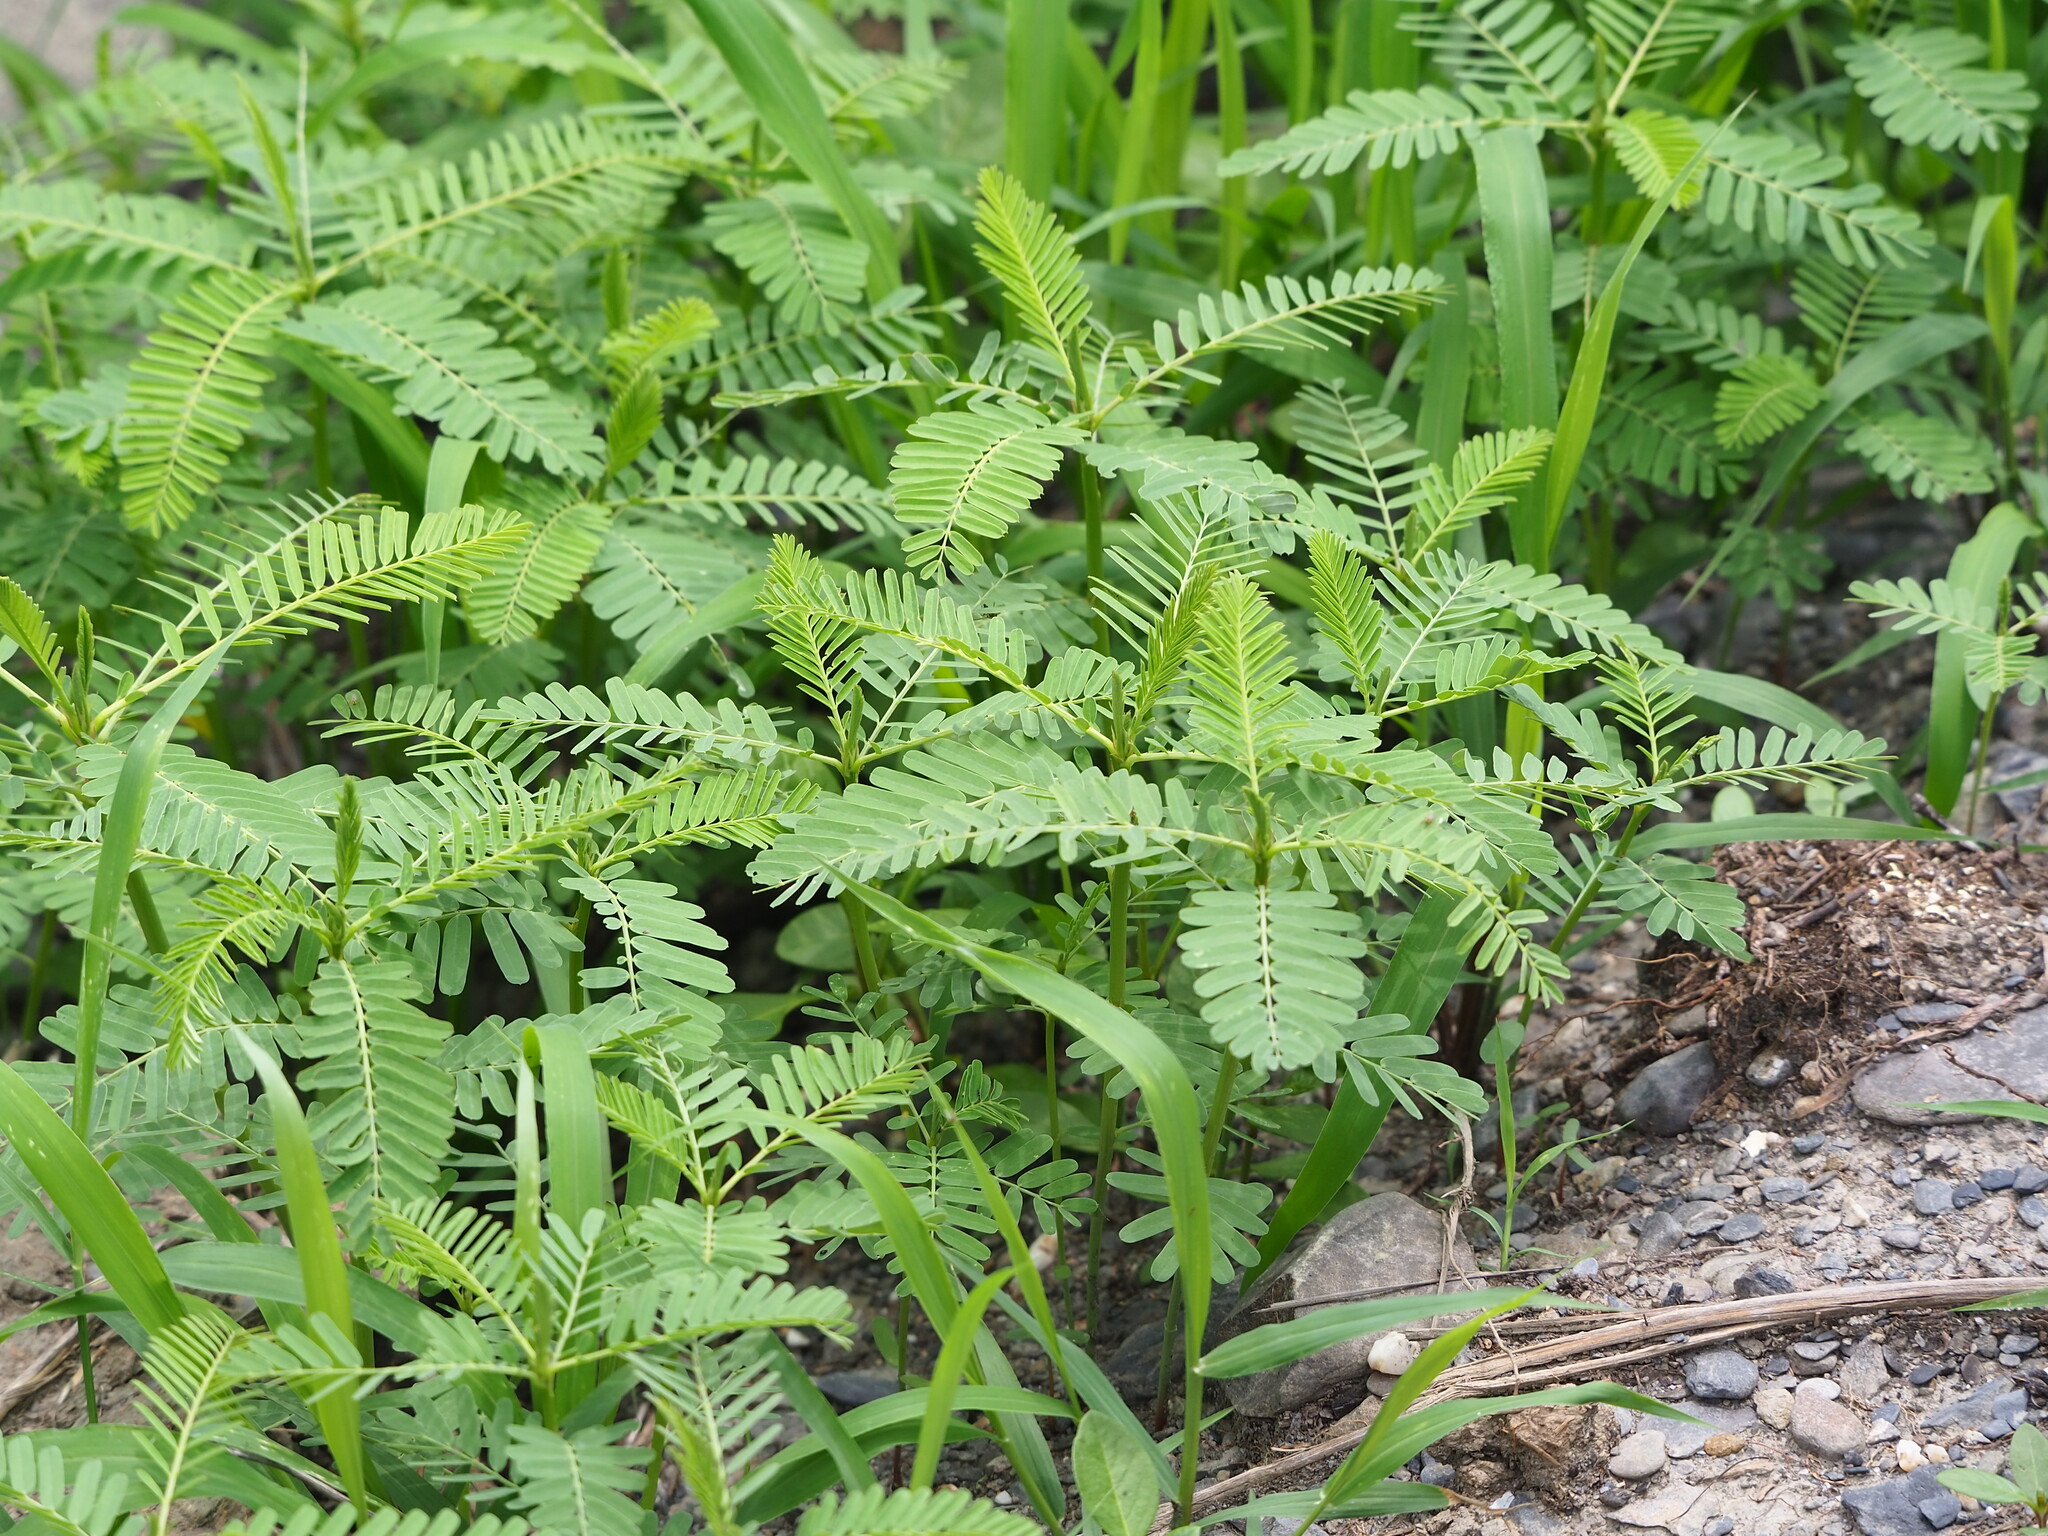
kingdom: Plantae
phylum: Tracheophyta
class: Magnoliopsida
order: Fabales
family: Fabaceae
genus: Sesbania
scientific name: Sesbania cannabina
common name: Canicha
